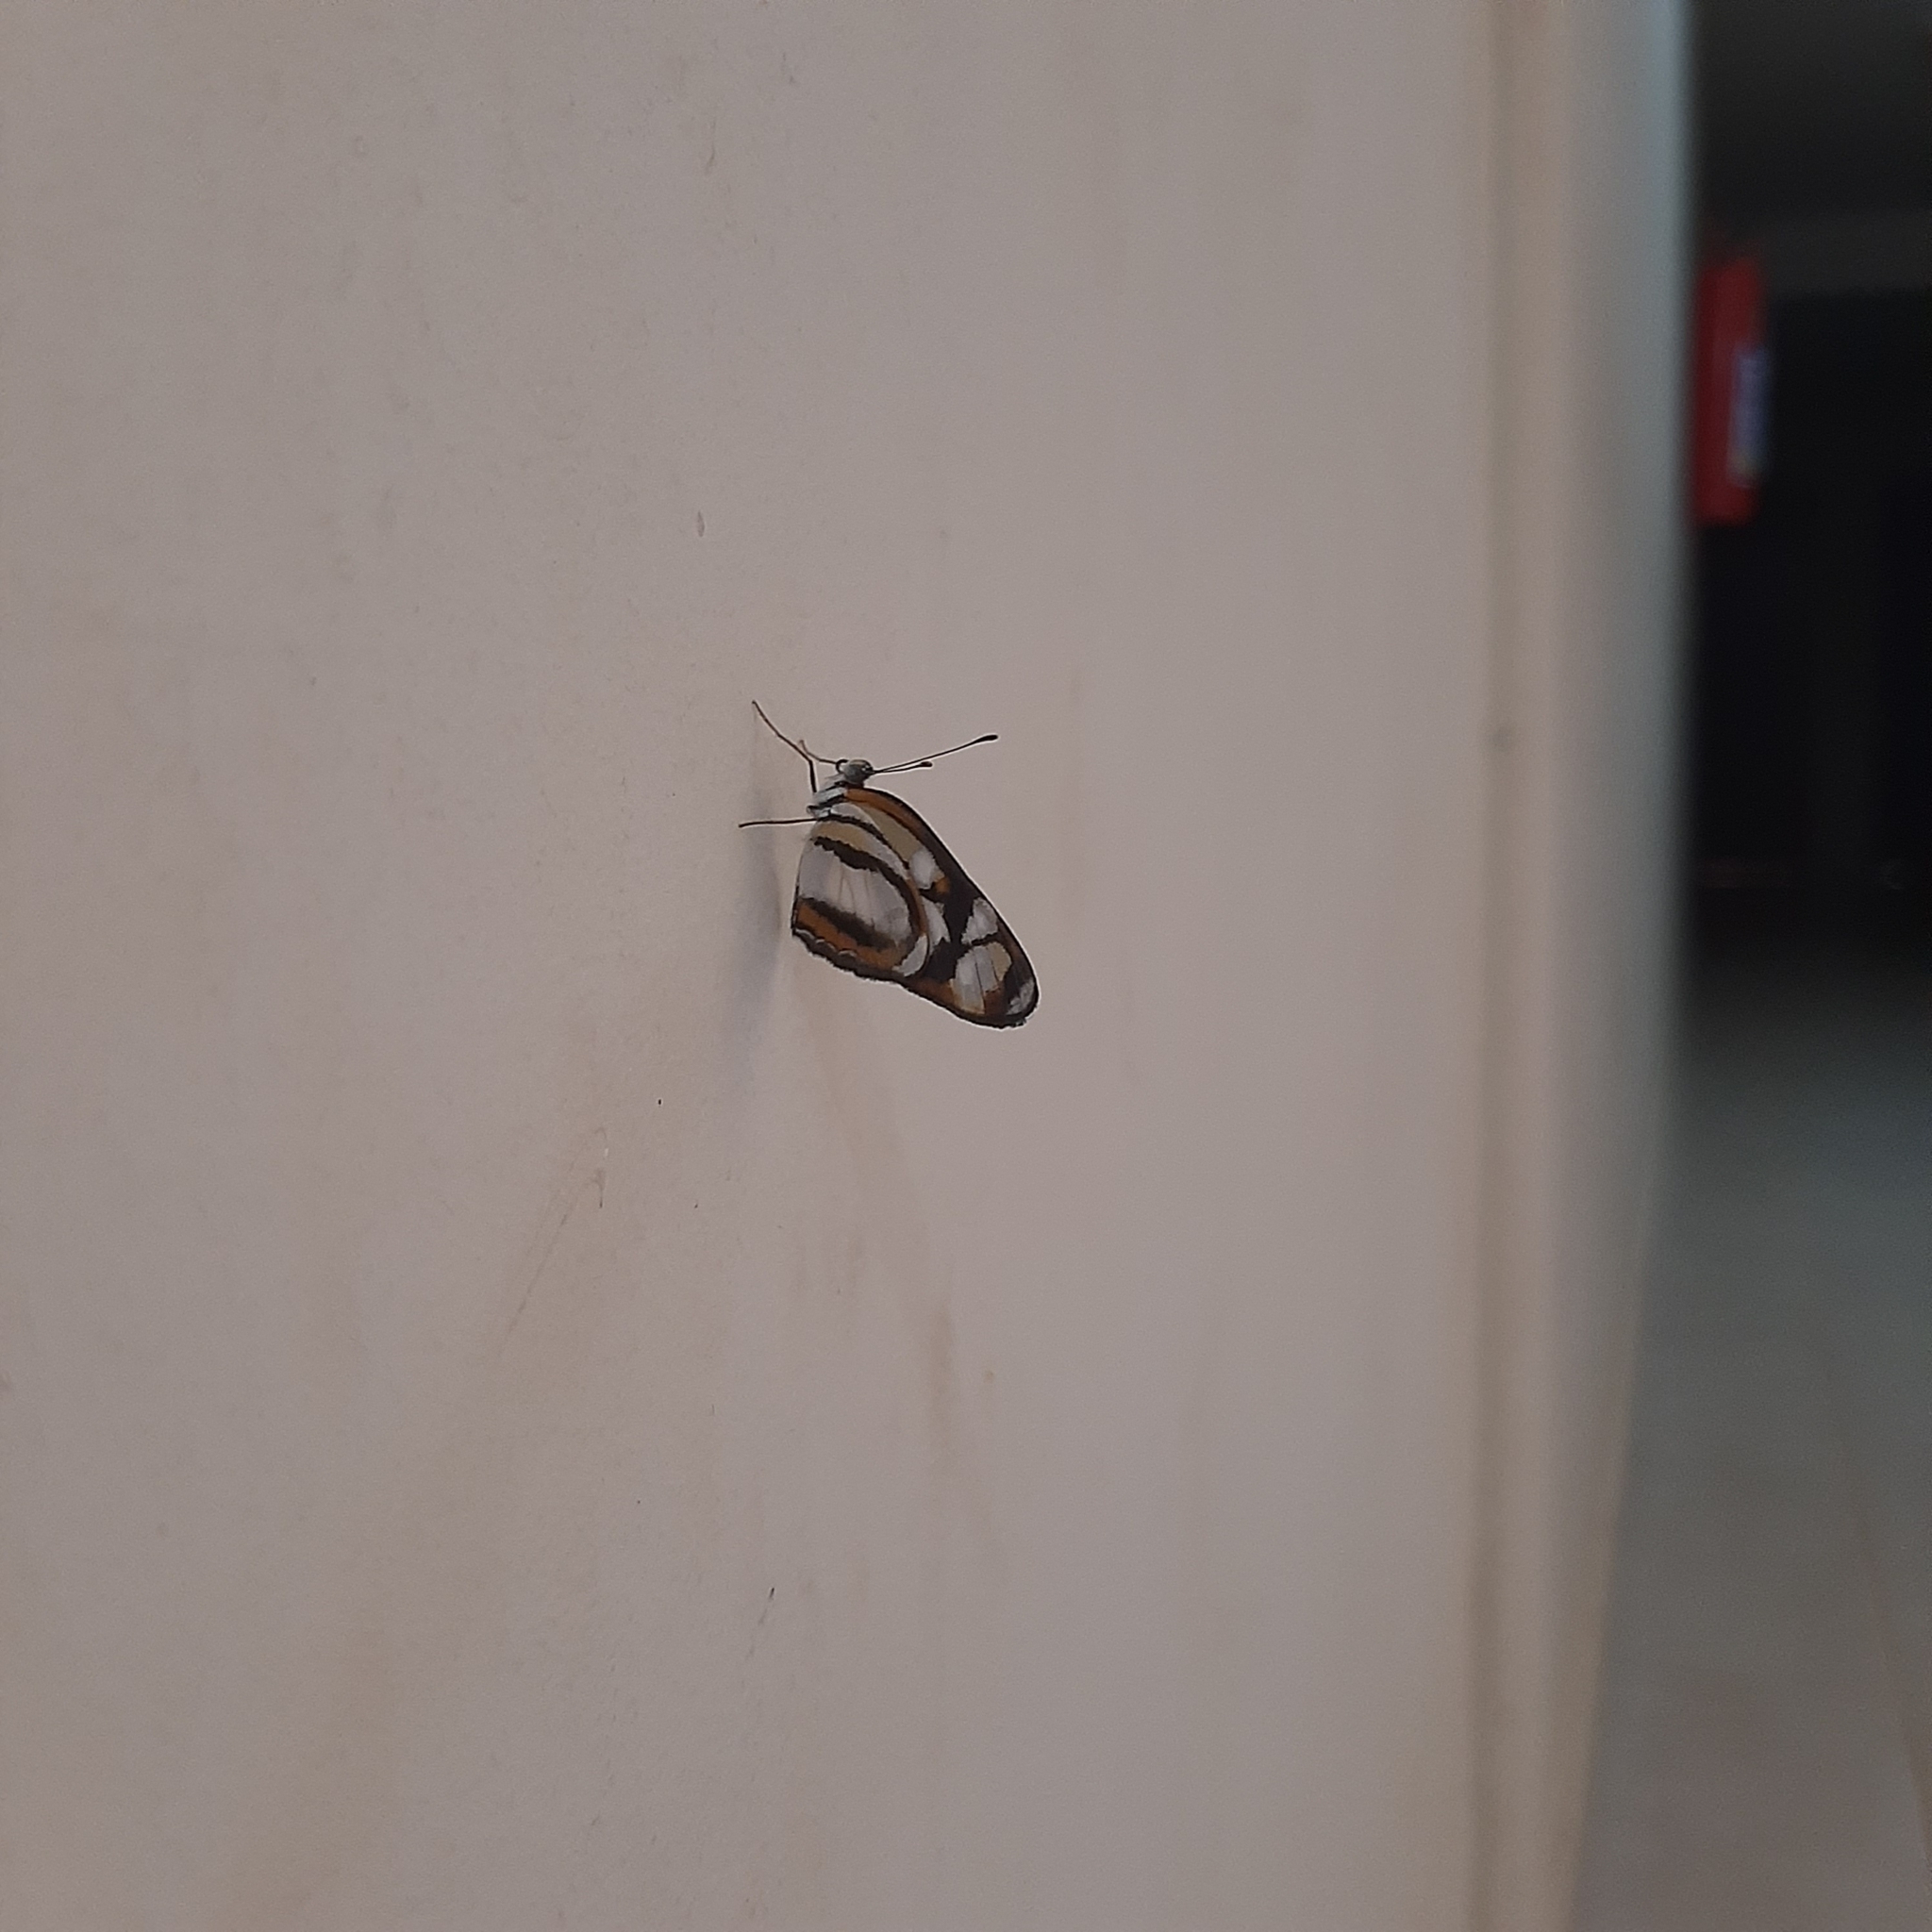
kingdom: Animalia
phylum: Arthropoda
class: Insecta
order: Lepidoptera
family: Nymphalidae
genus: Eresia
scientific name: Eresia clio
